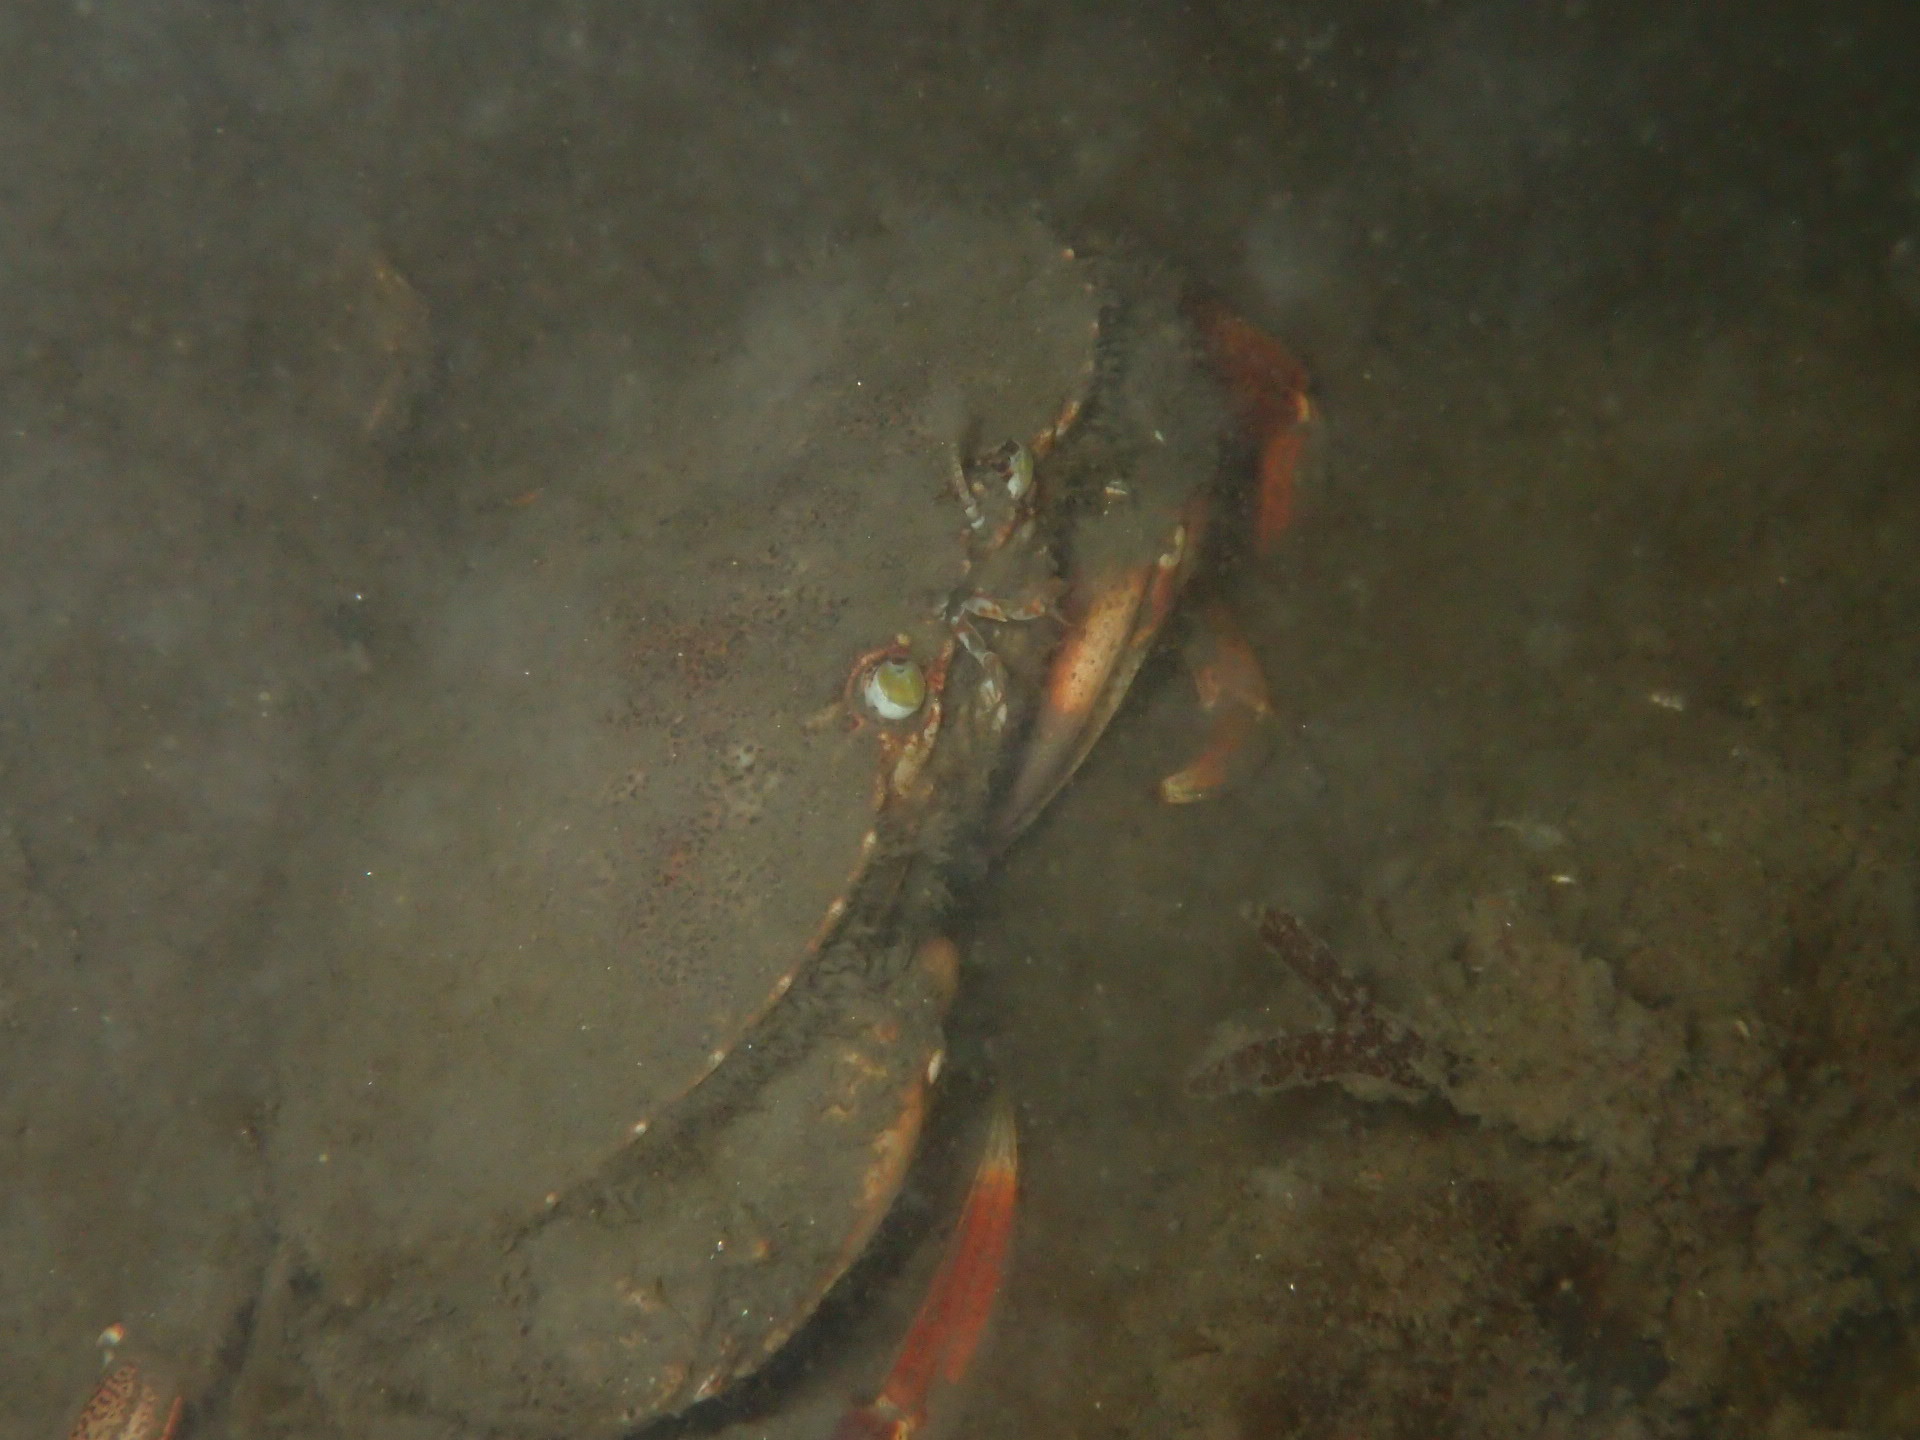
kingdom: Animalia
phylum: Arthropoda
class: Malacostraca
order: Decapoda
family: Cancridae
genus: Cancer
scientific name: Cancer borealis
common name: Jonah crab
